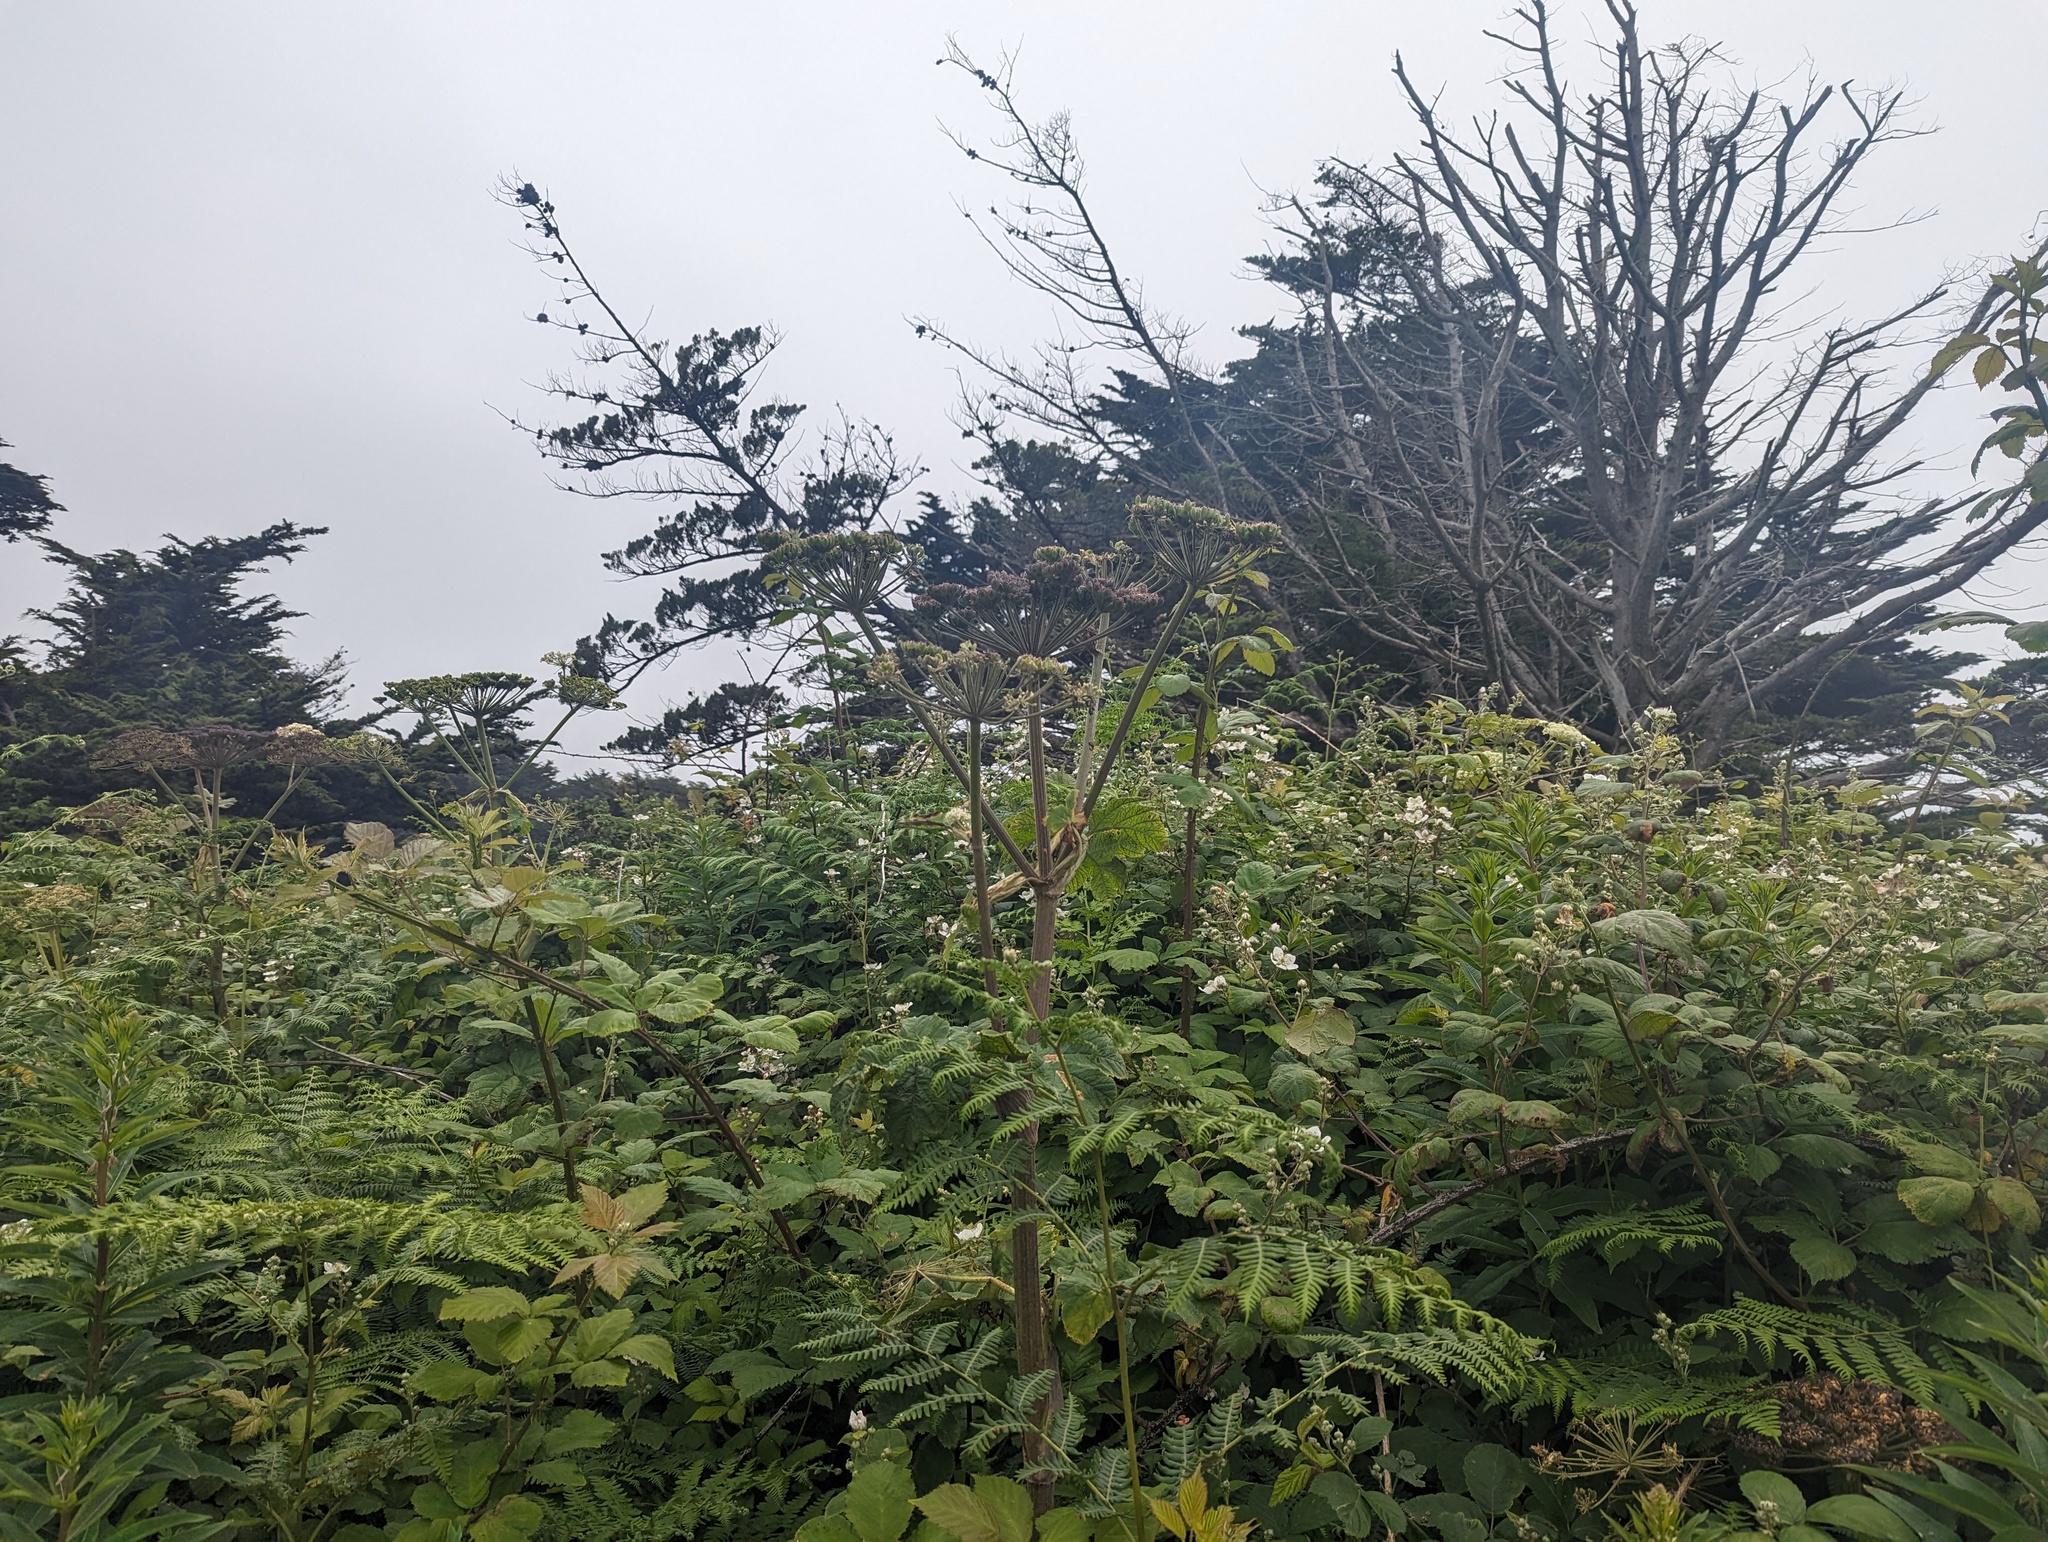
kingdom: Plantae
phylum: Tracheophyta
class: Magnoliopsida
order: Apiales
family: Apiaceae
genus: Heracleum
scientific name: Heracleum maximum
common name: American cow parsnip
